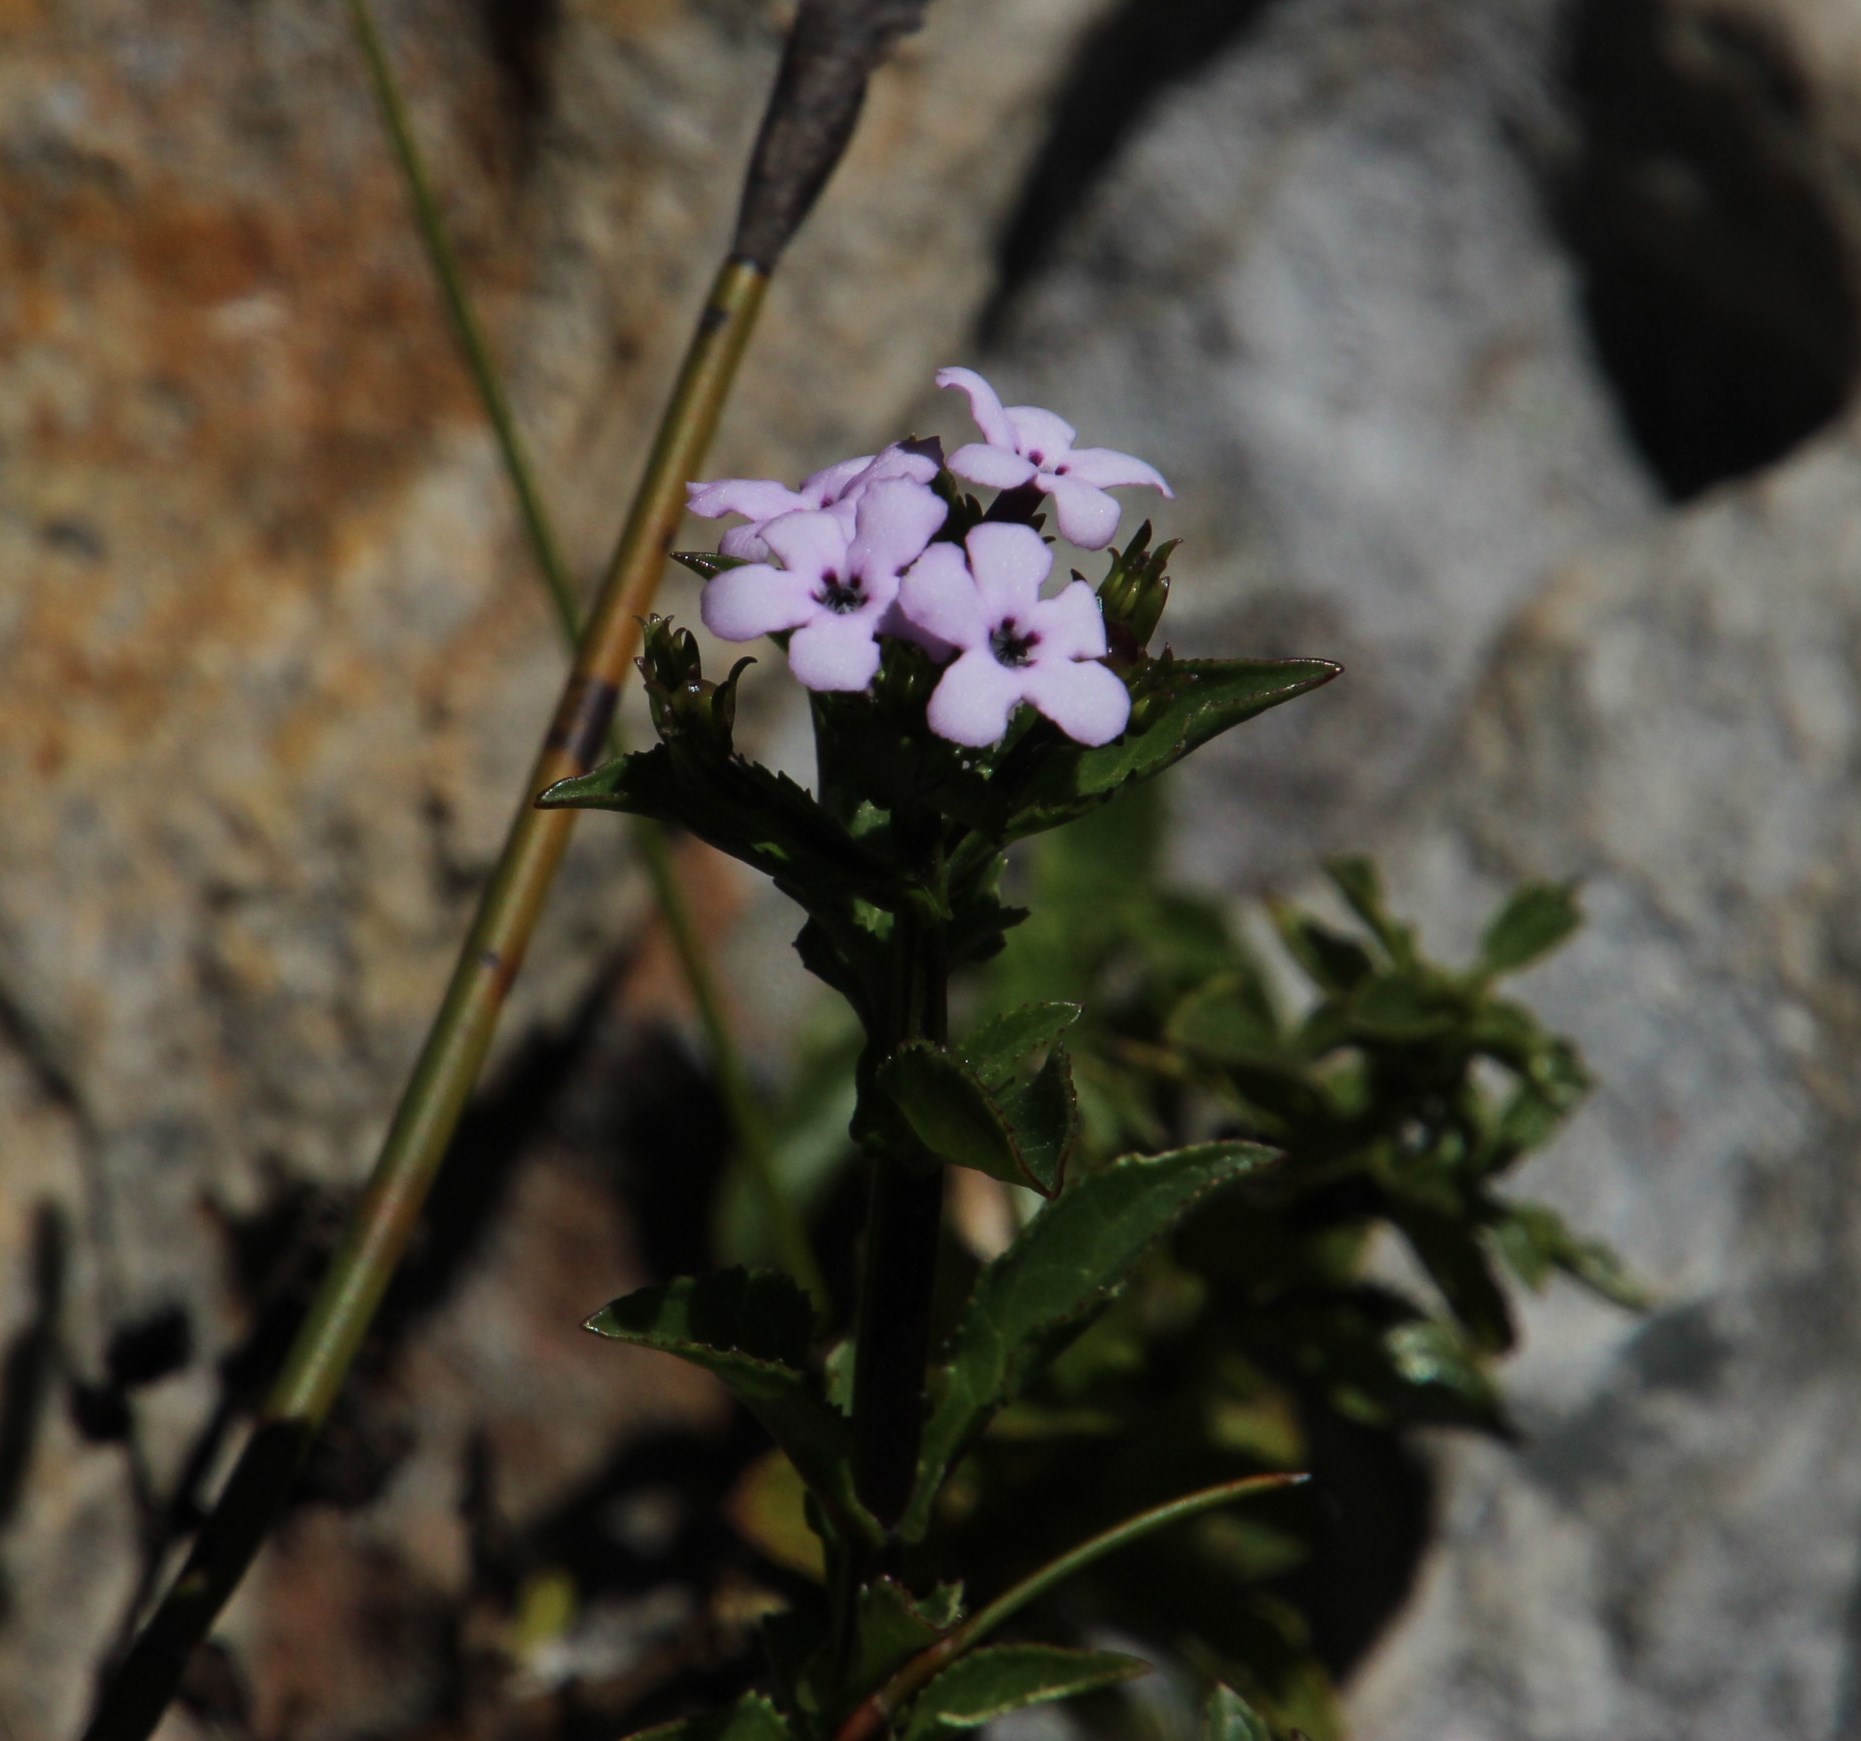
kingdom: Plantae
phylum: Tracheophyta
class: Magnoliopsida
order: Lamiales
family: Scrophulariaceae
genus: Teedia
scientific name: Teedia lucida
